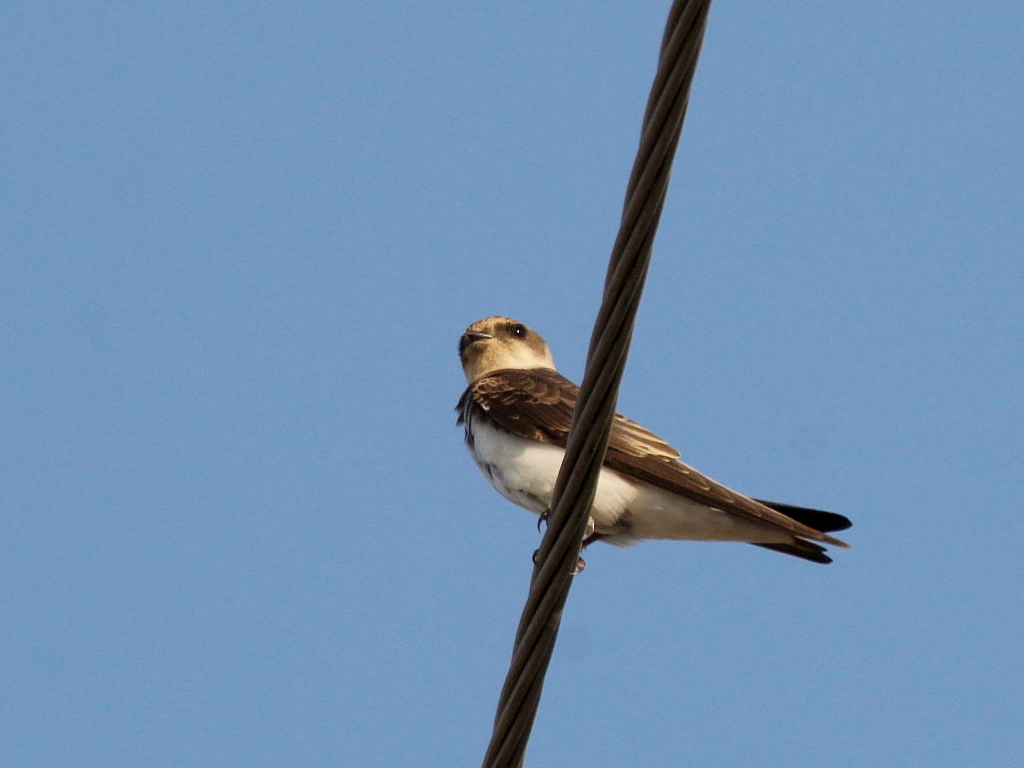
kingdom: Animalia
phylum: Chordata
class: Aves
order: Passeriformes
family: Hirundinidae
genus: Riparia
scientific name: Riparia riparia
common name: Sand martin
